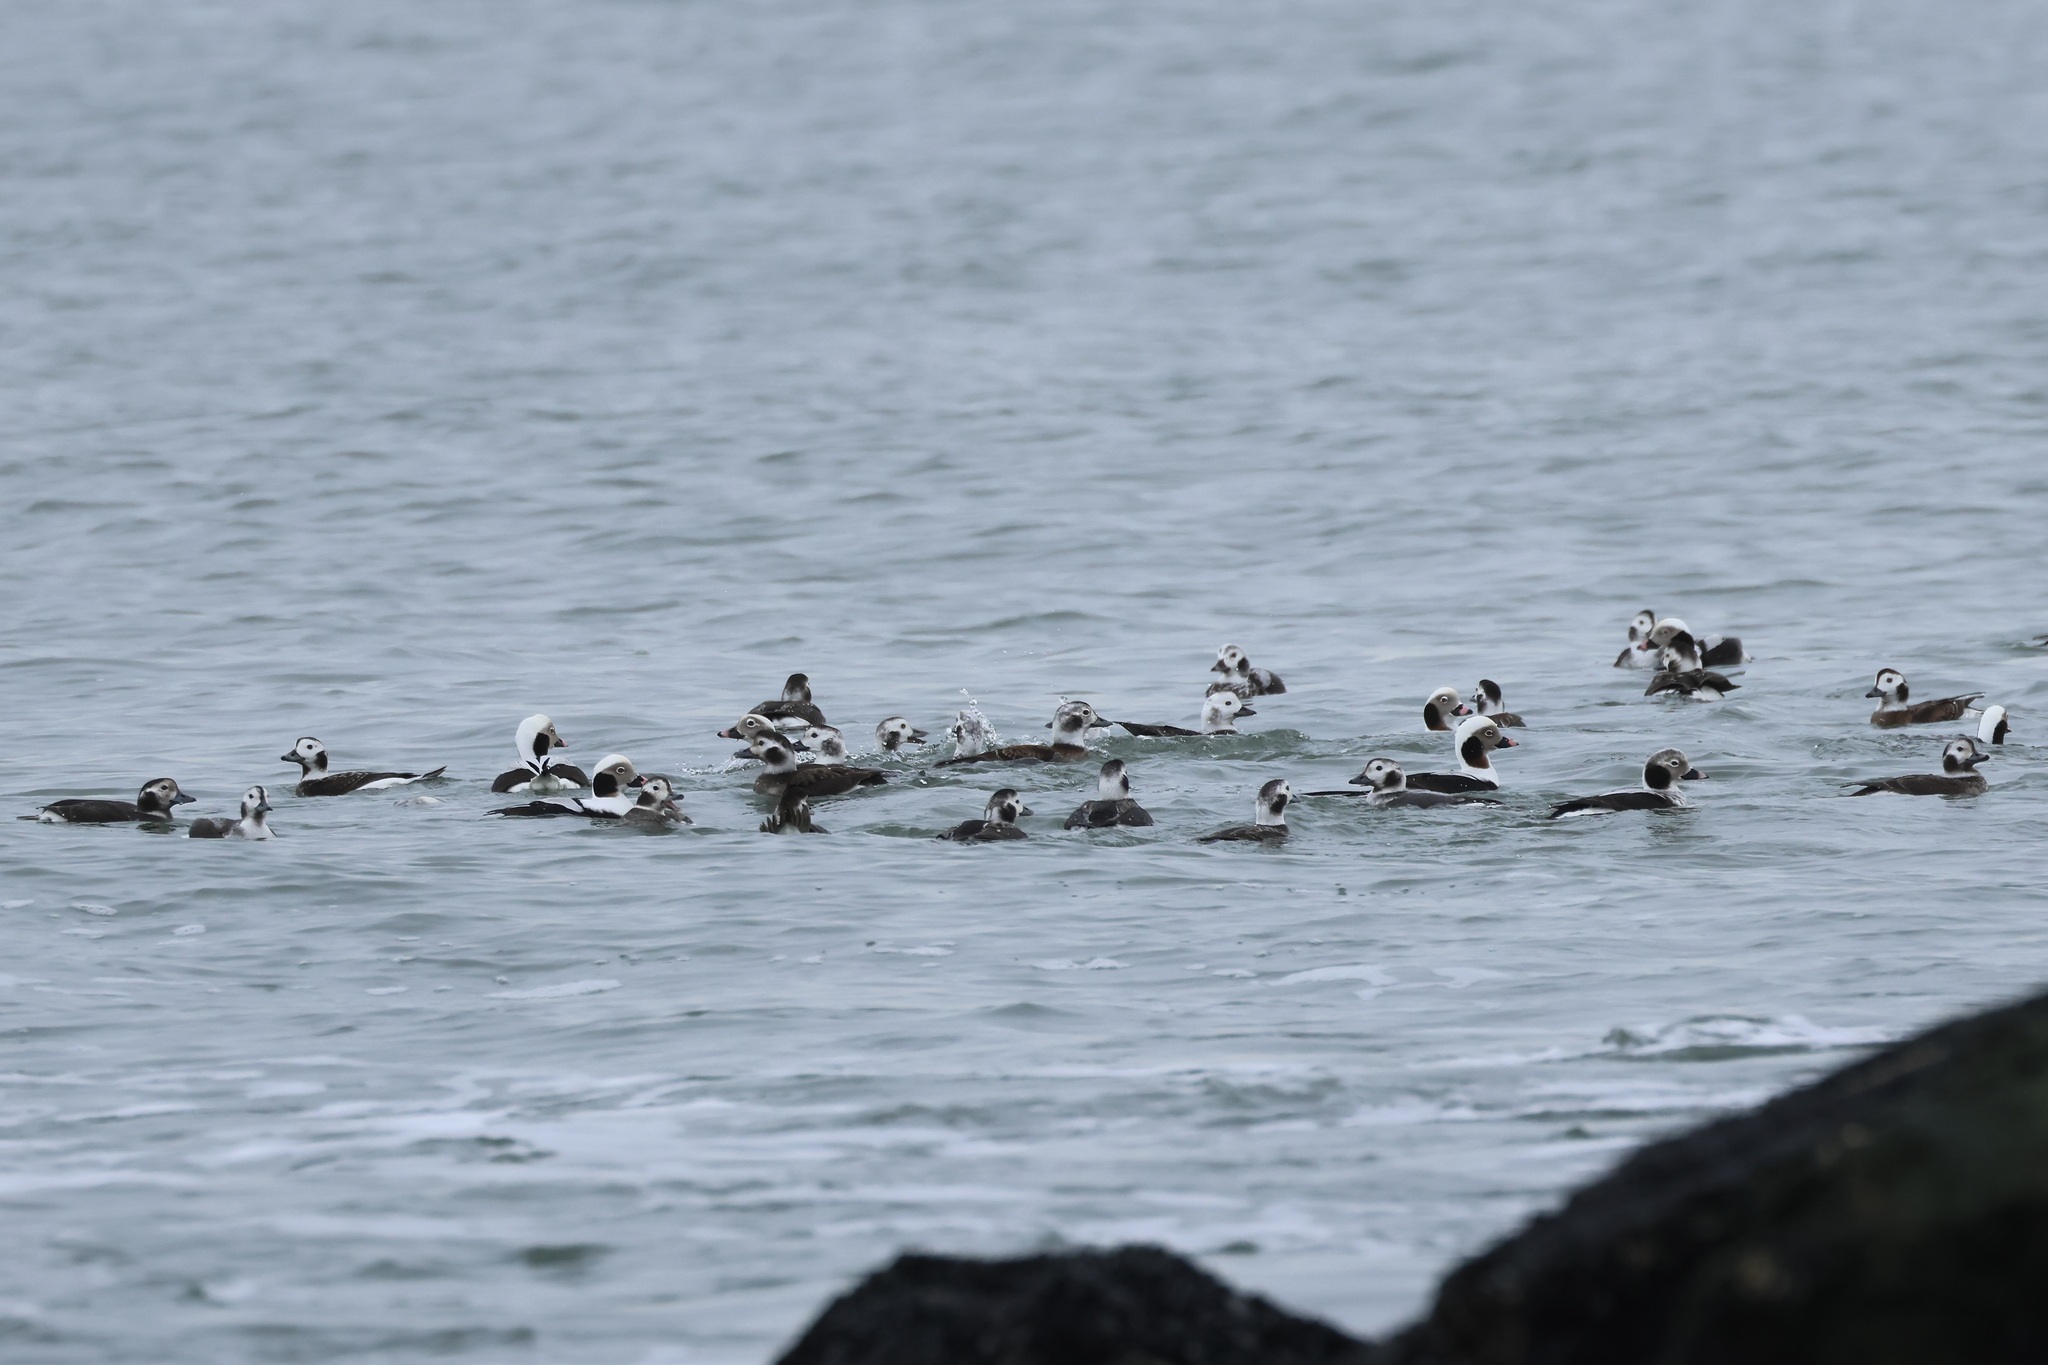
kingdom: Animalia
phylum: Chordata
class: Aves
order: Anseriformes
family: Anatidae
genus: Clangula
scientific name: Clangula hyemalis
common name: Long-tailed duck
